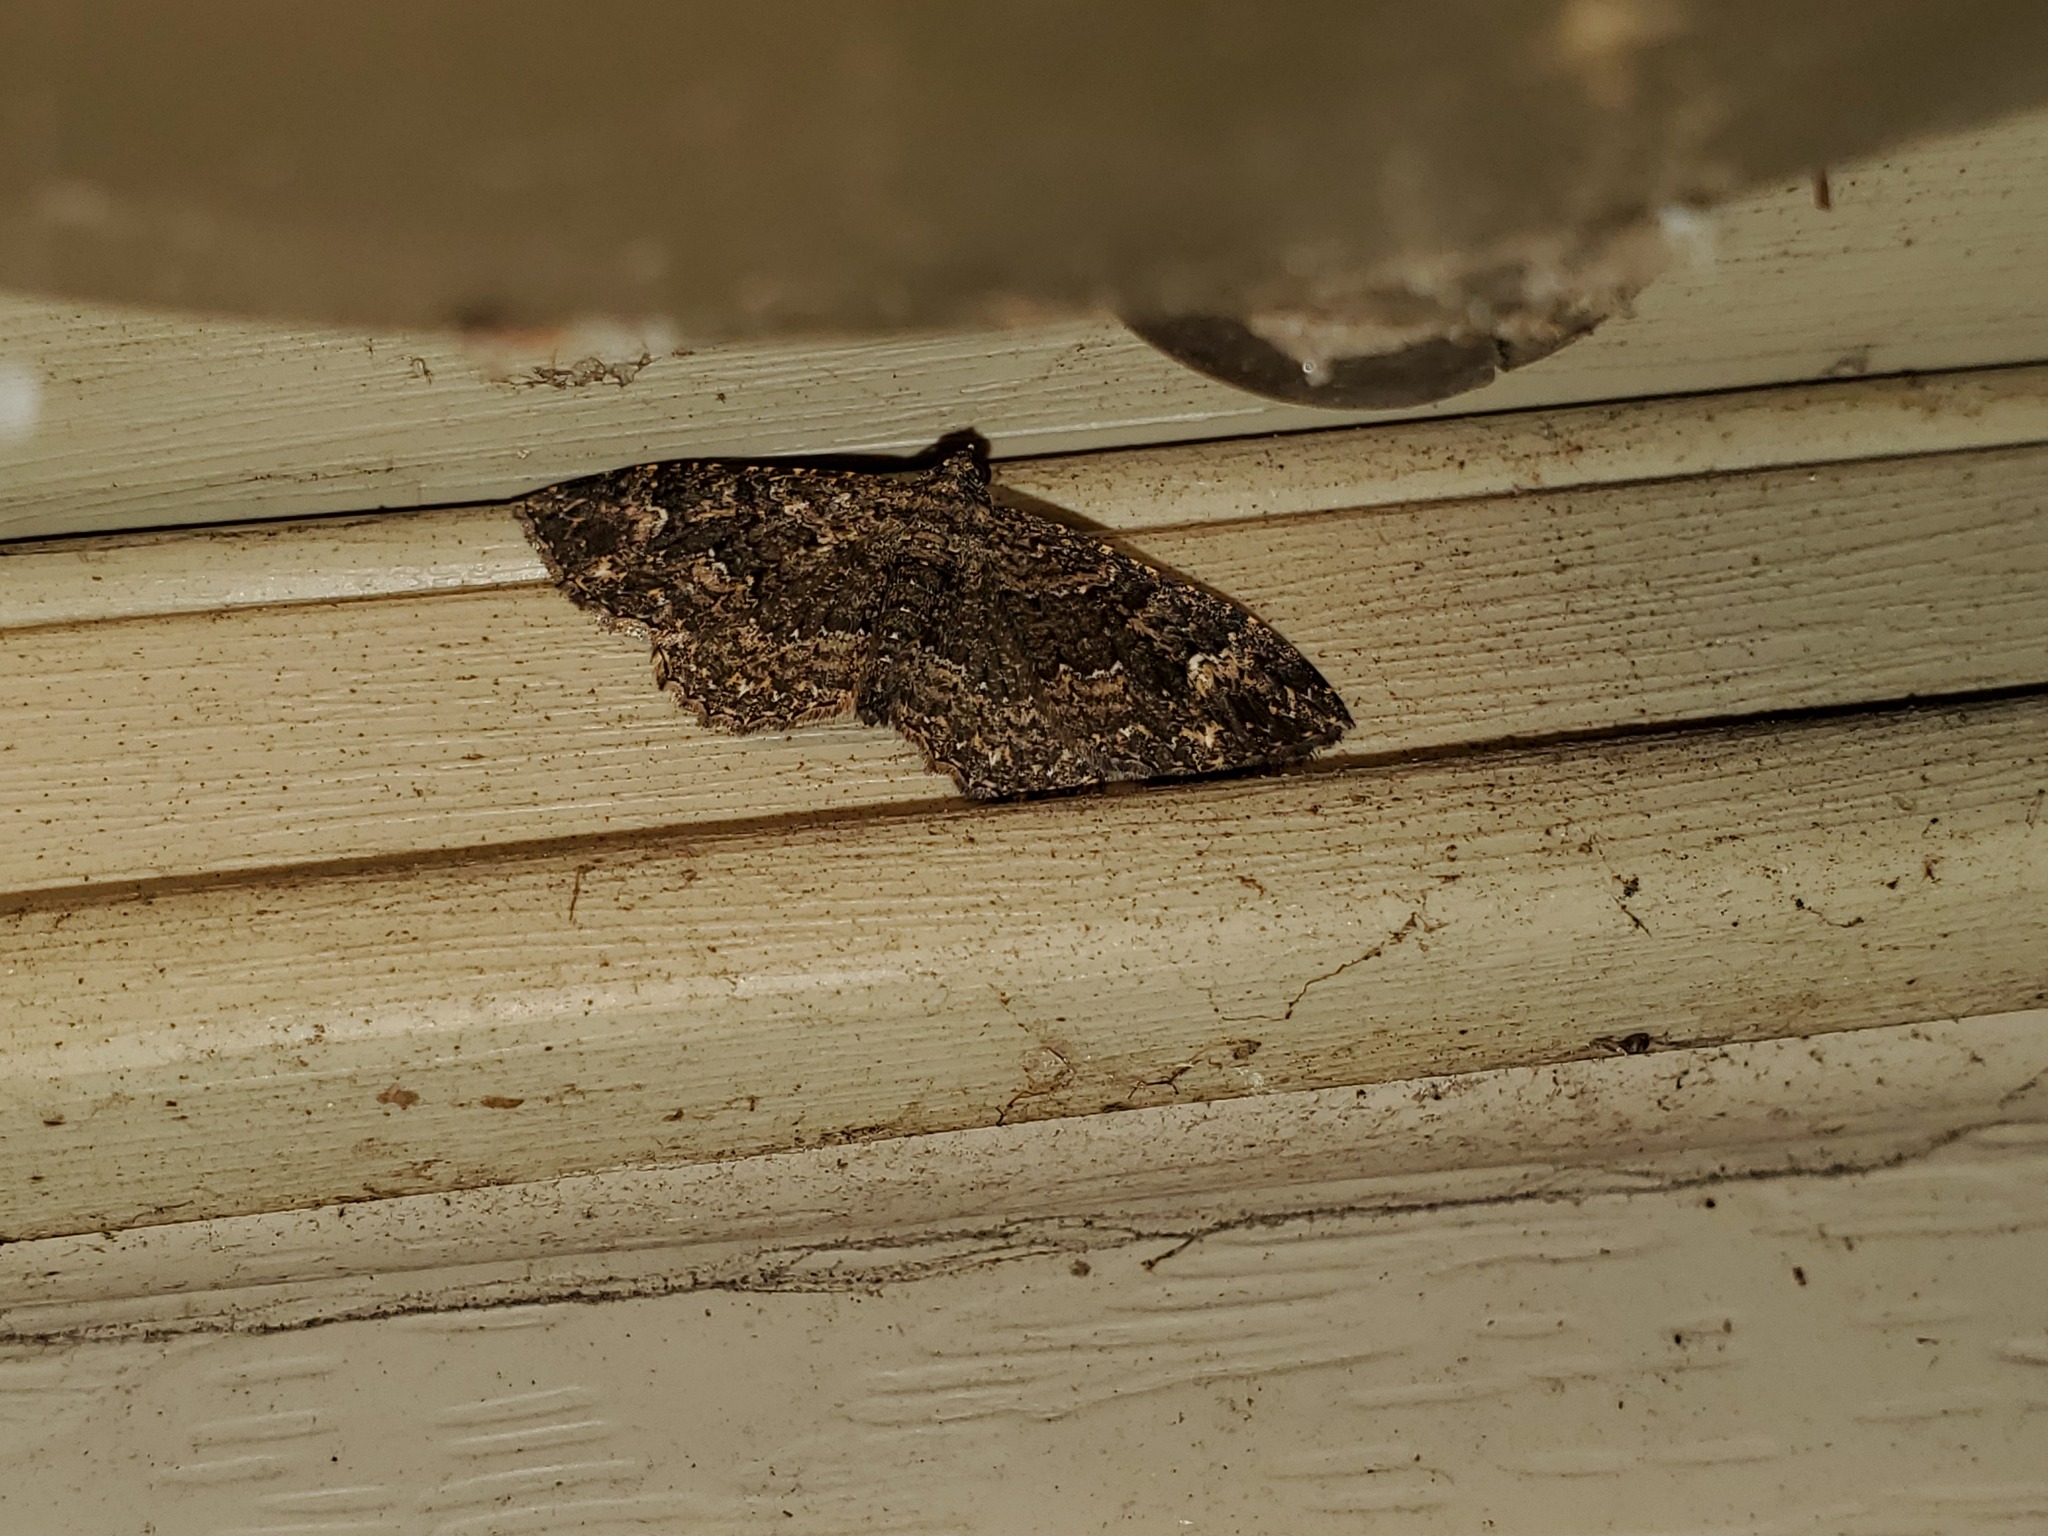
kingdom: Animalia
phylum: Arthropoda
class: Insecta
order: Lepidoptera
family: Geometridae
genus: Disclisioprocta
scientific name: Disclisioprocta stellata
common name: Somber carpet
